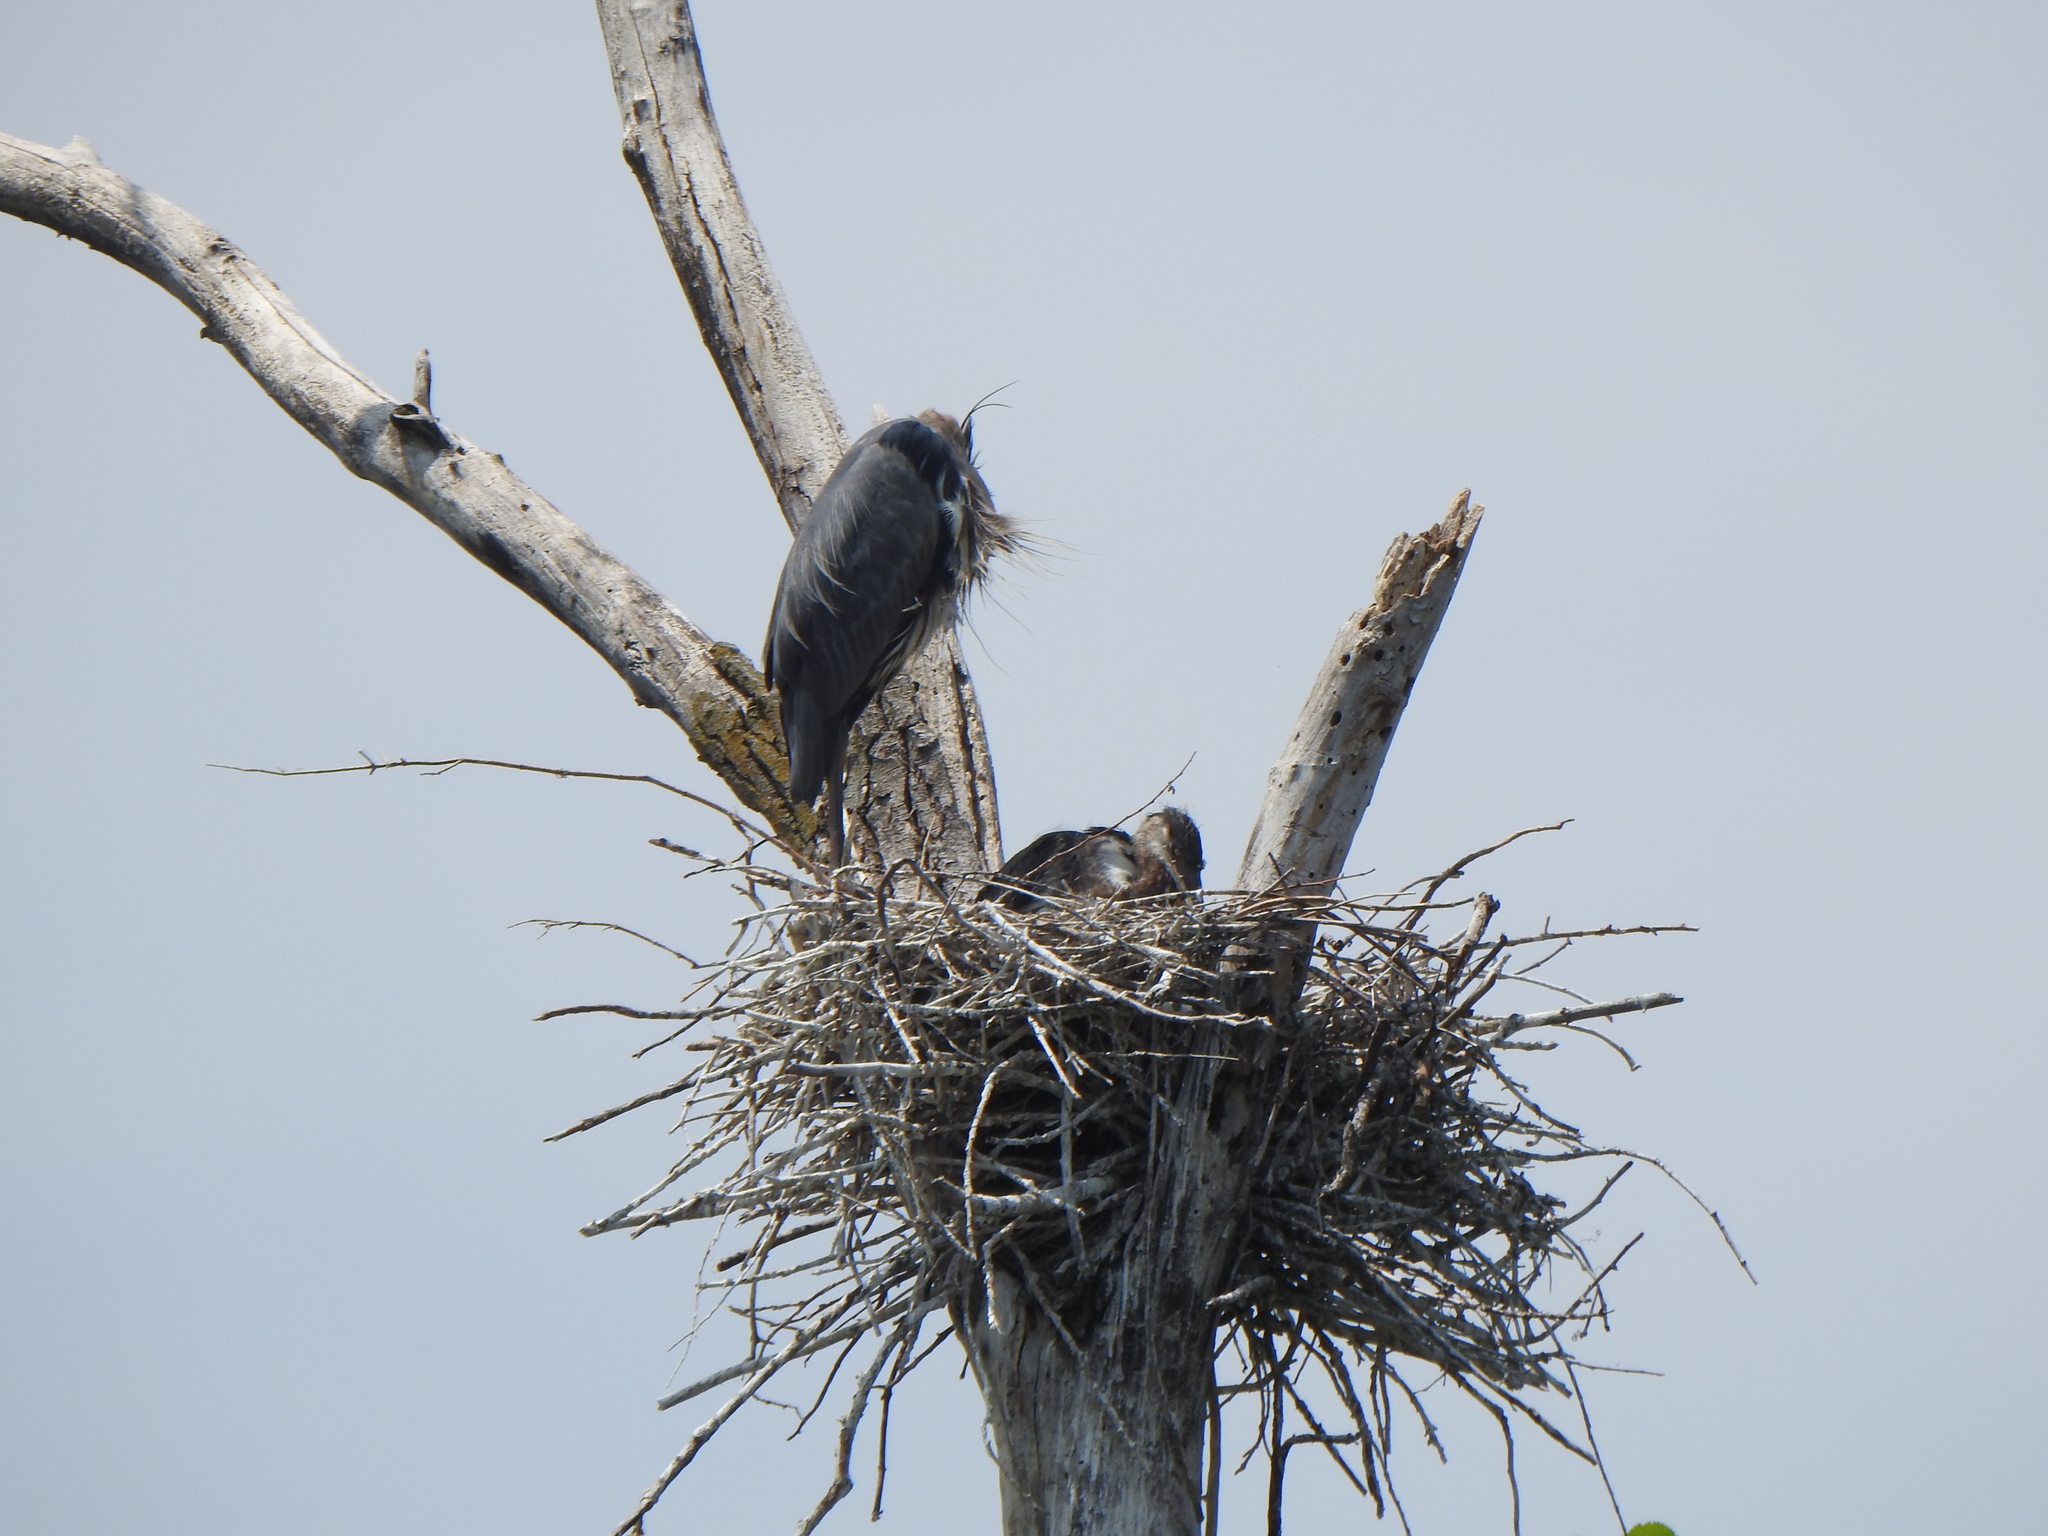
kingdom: Animalia
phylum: Chordata
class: Aves
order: Pelecaniformes
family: Ardeidae
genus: Ardea
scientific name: Ardea herodias
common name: Great blue heron
